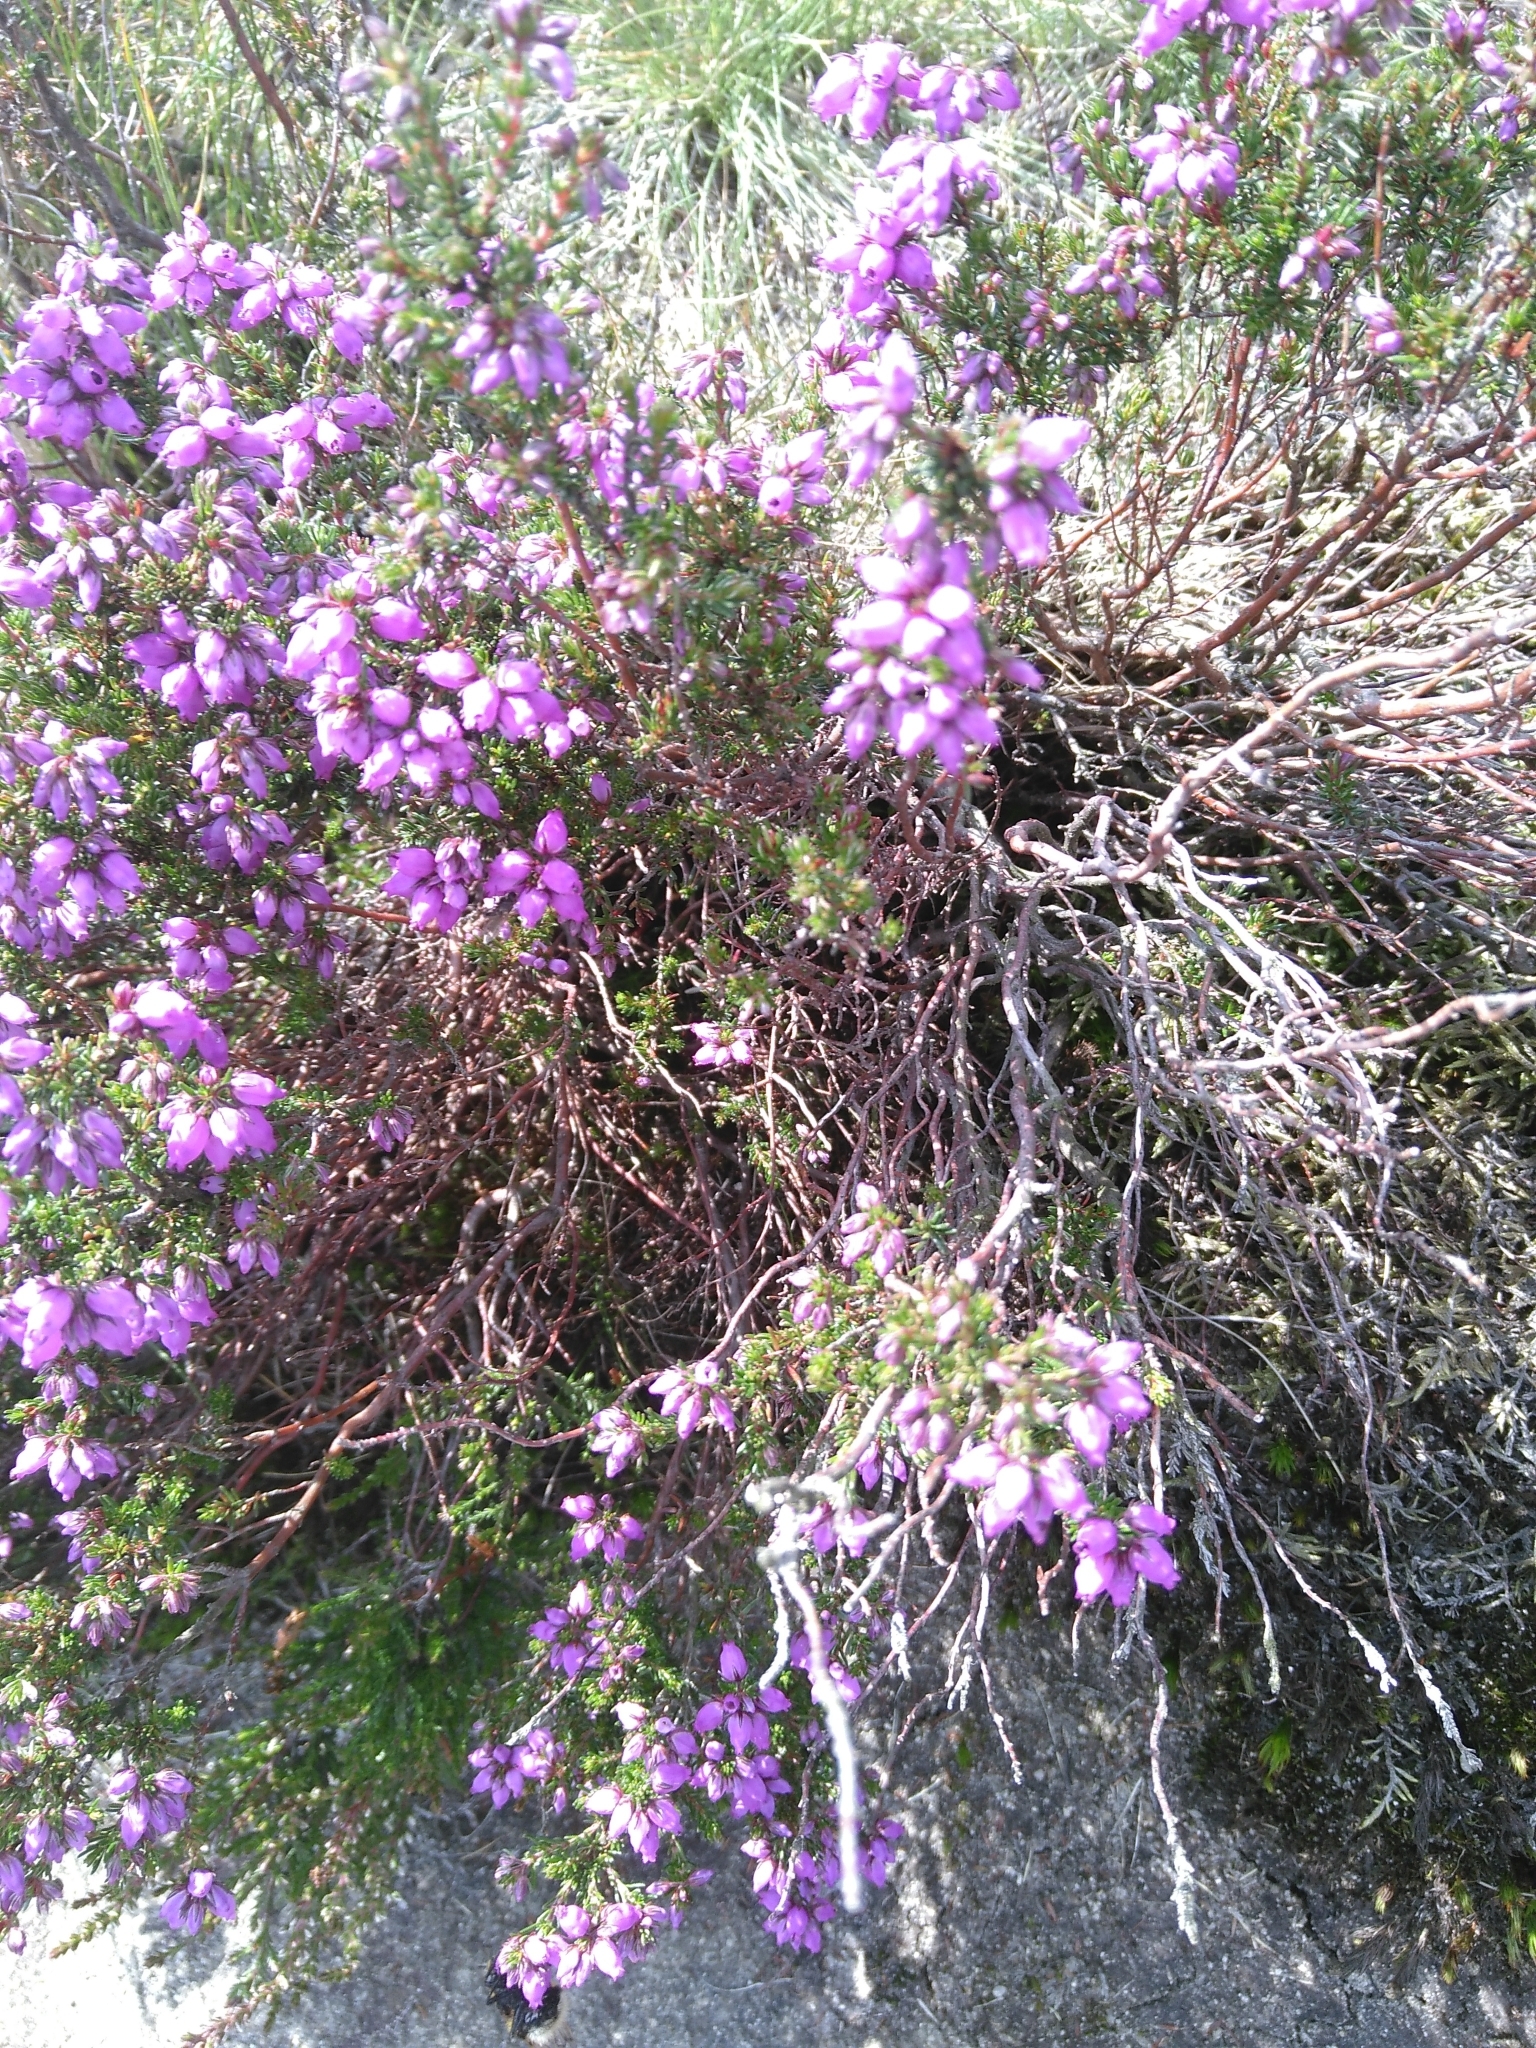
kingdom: Plantae
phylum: Tracheophyta
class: Magnoliopsida
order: Ericales
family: Ericaceae
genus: Erica
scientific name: Erica cinerea
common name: Bell heather
